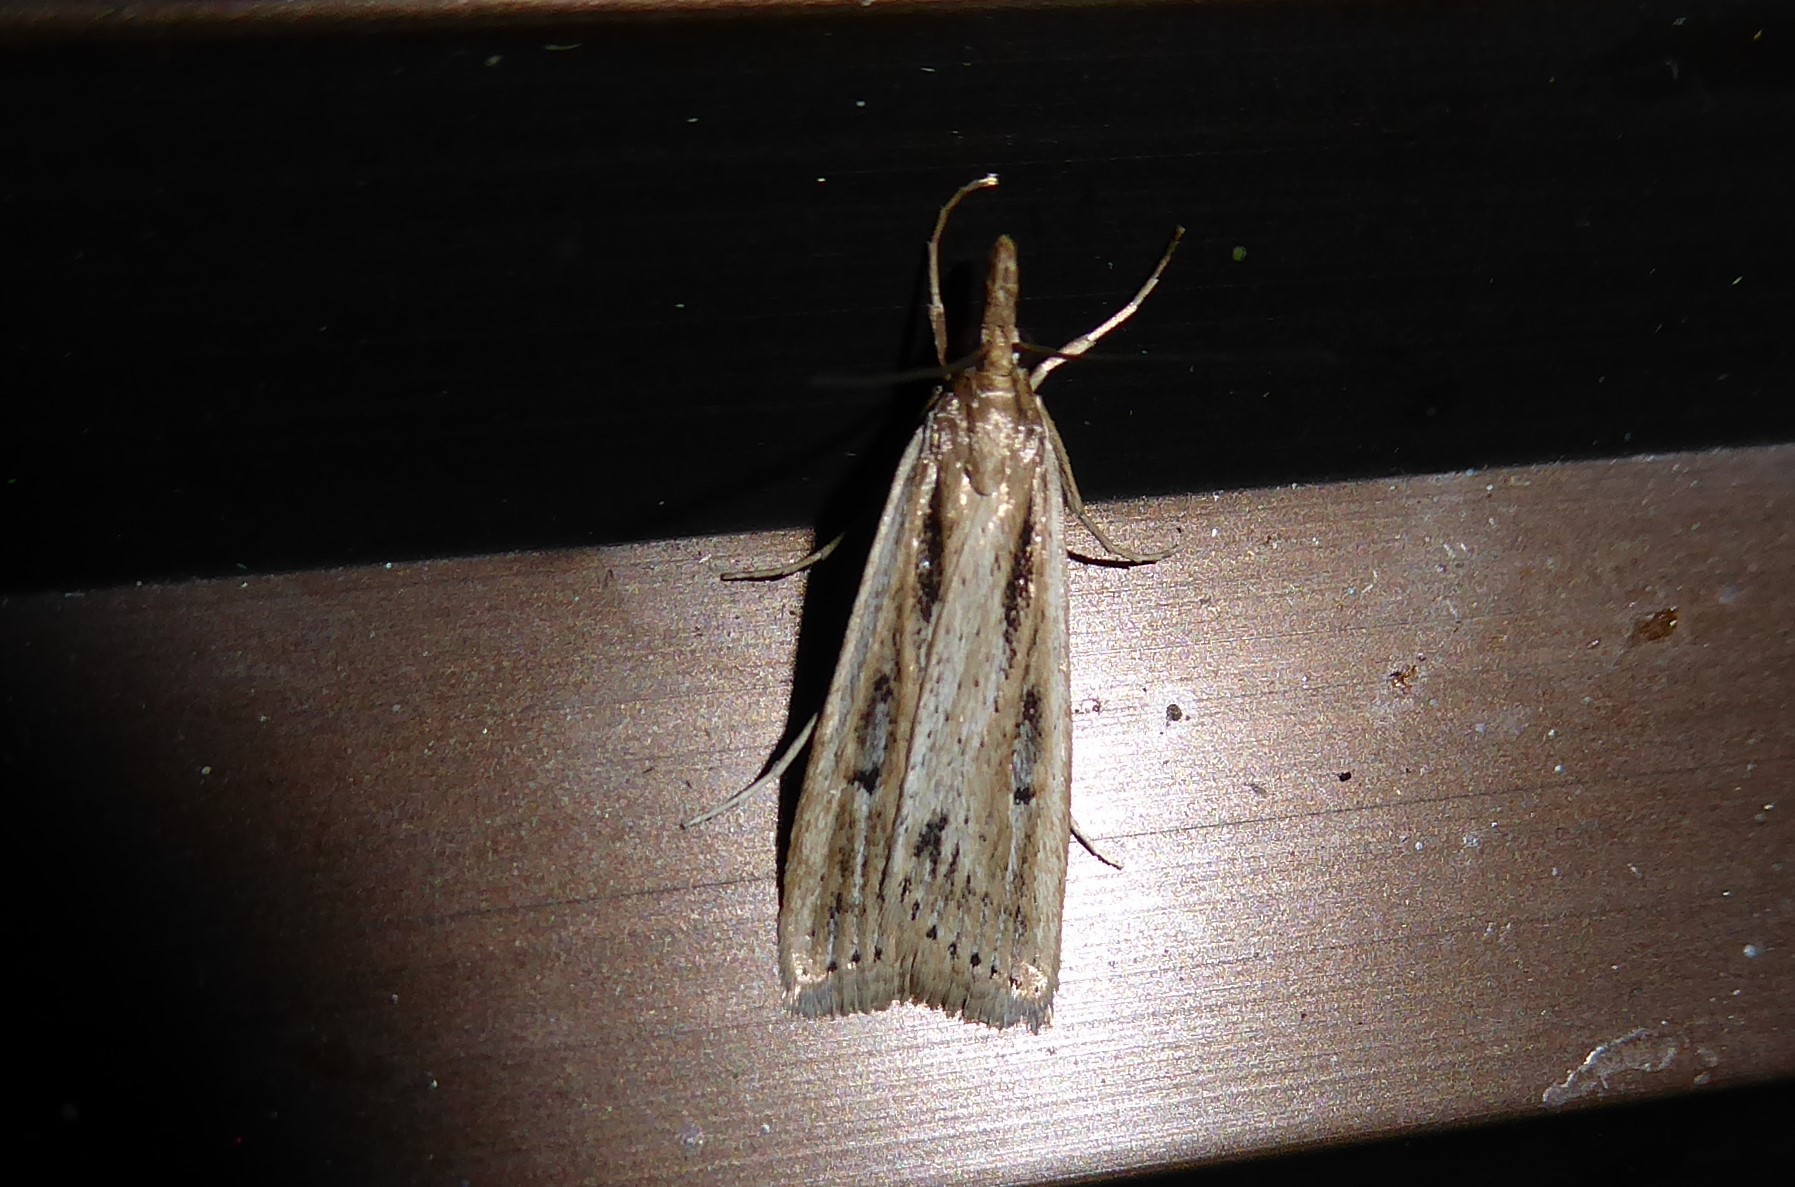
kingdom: Animalia
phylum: Arthropoda
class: Insecta
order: Lepidoptera
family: Crambidae
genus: Eudonia
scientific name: Eudonia sabulosella
